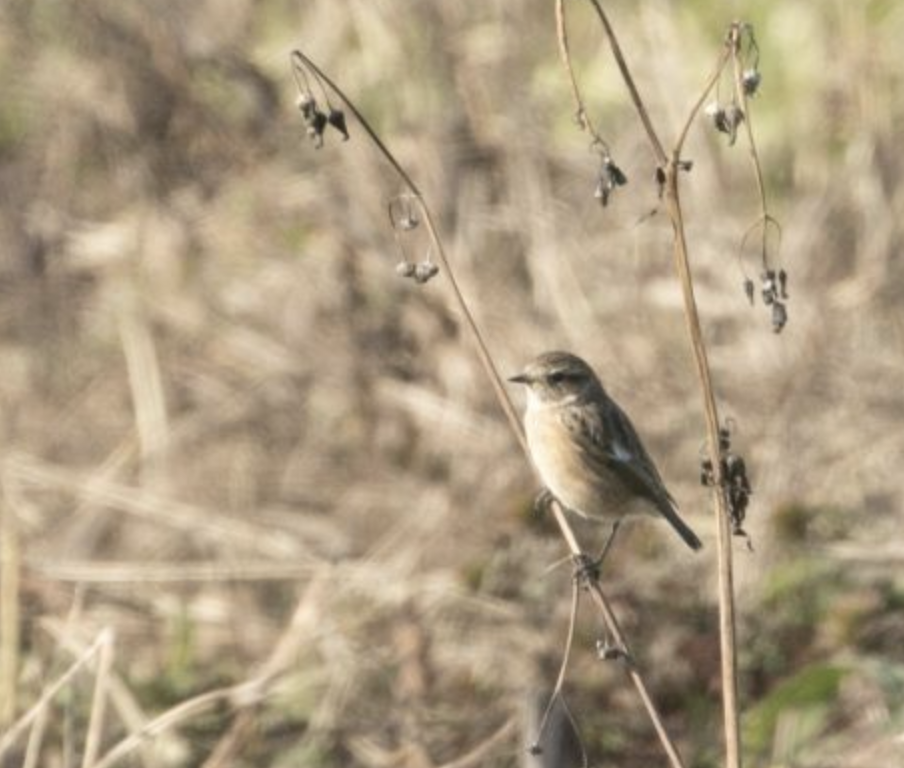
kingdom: Animalia
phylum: Chordata
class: Aves
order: Passeriformes
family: Muscicapidae
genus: Saxicola
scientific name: Saxicola rubicola
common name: European stonechat
